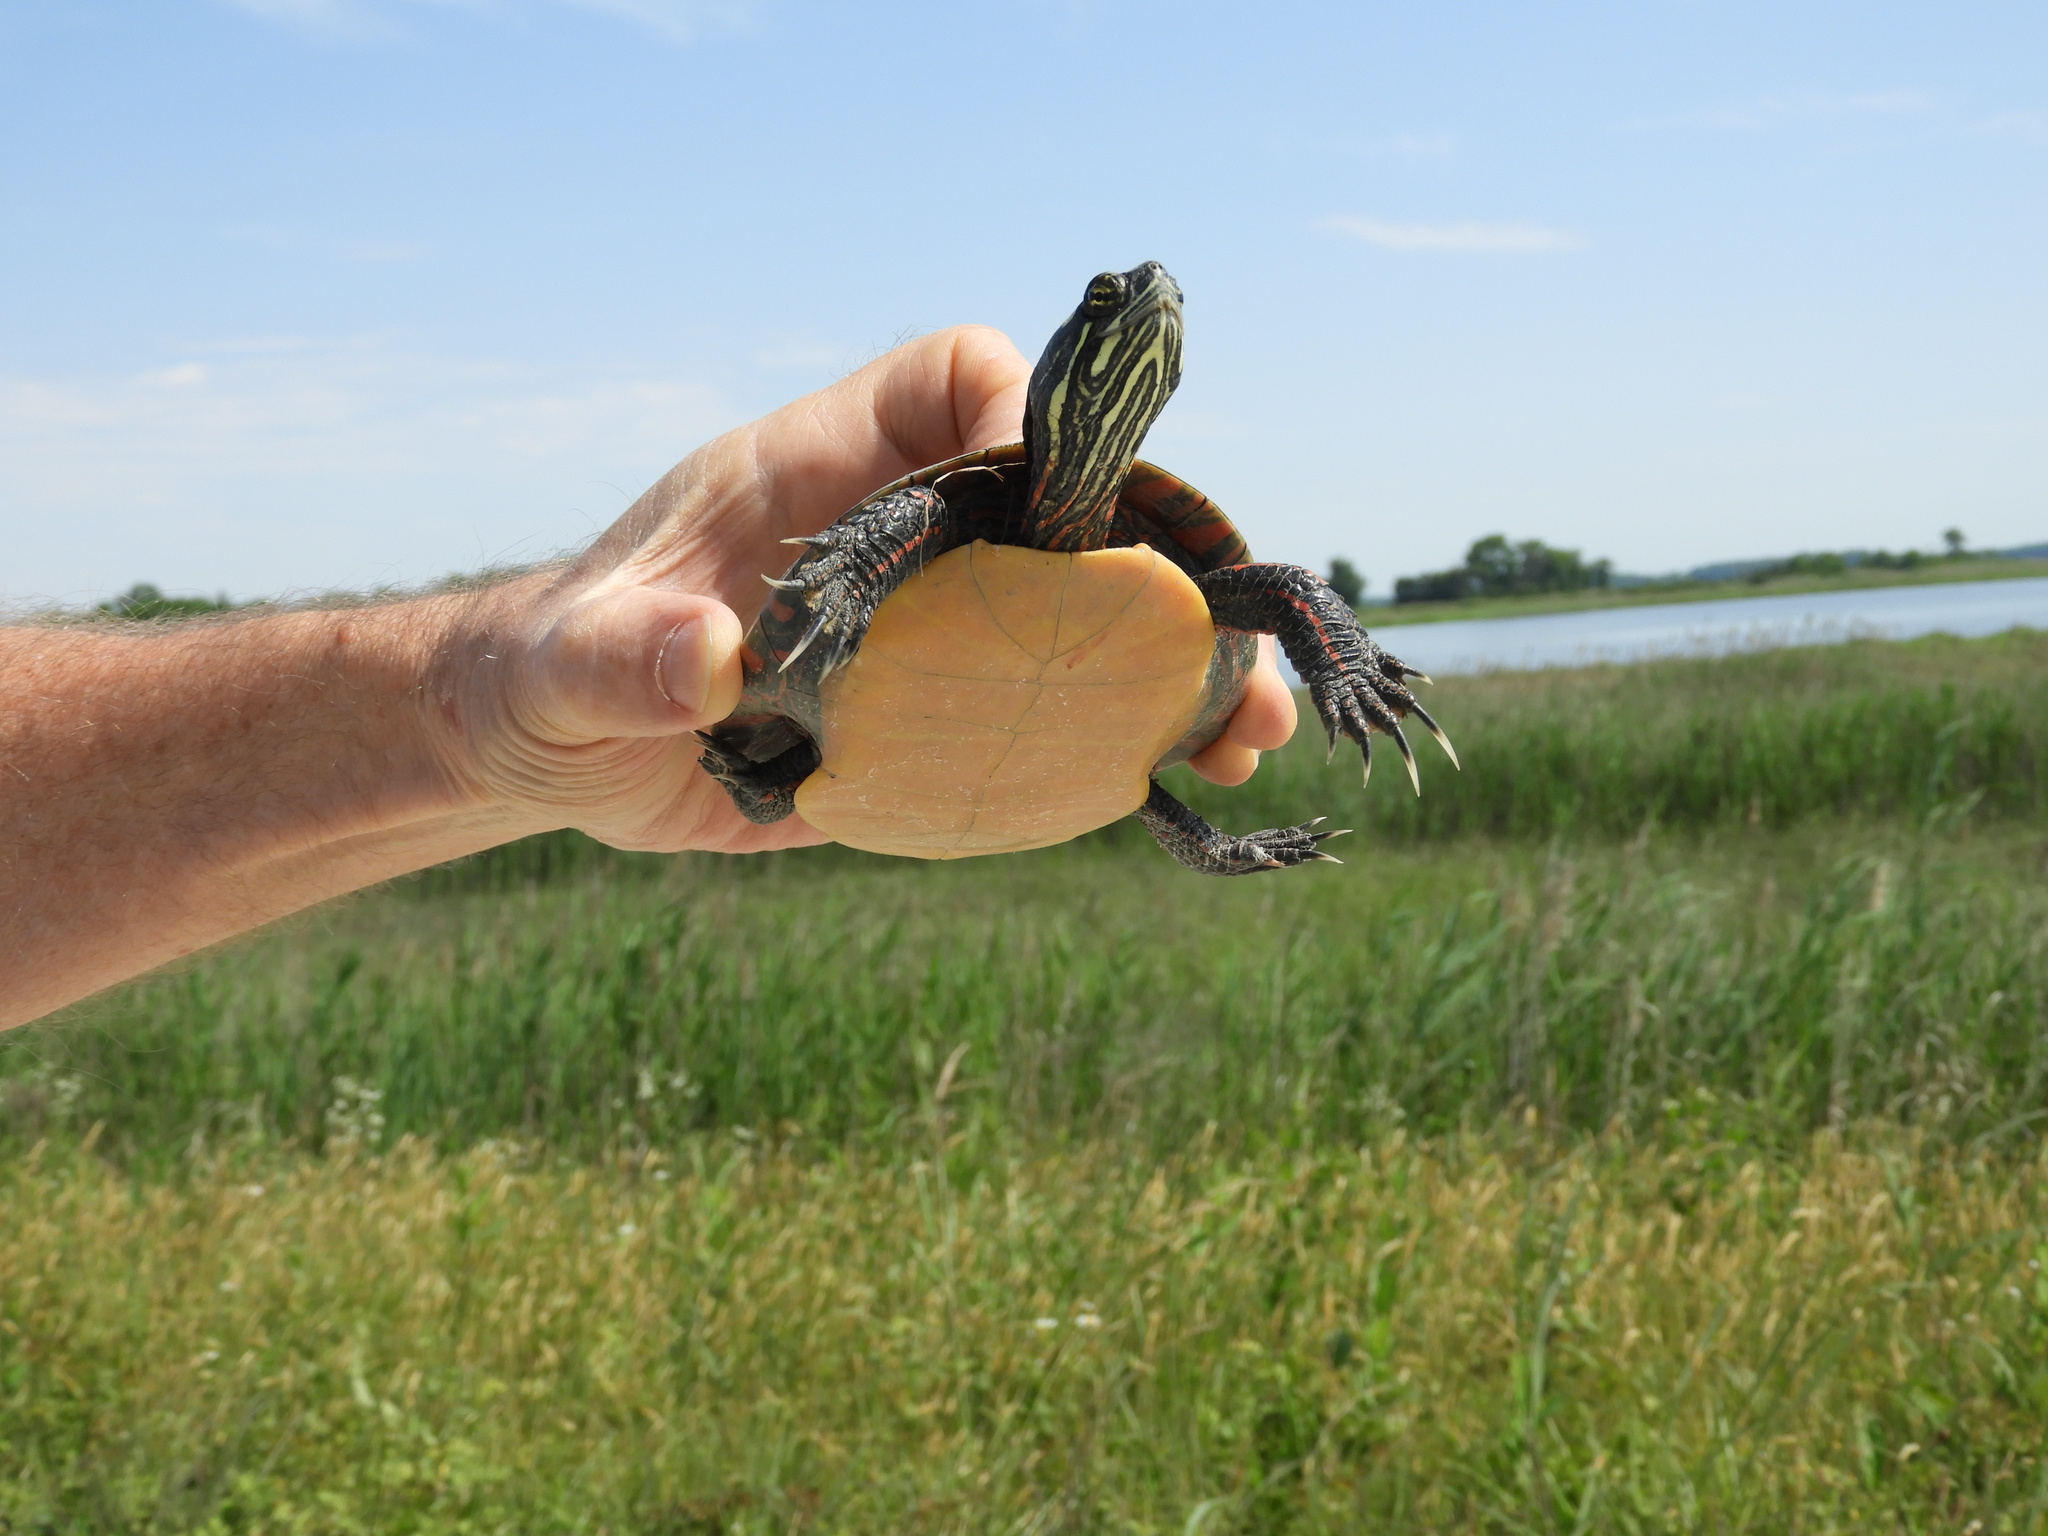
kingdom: Animalia
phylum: Chordata
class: Testudines
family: Emydidae
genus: Chrysemys
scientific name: Chrysemys picta
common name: Painted turtle
